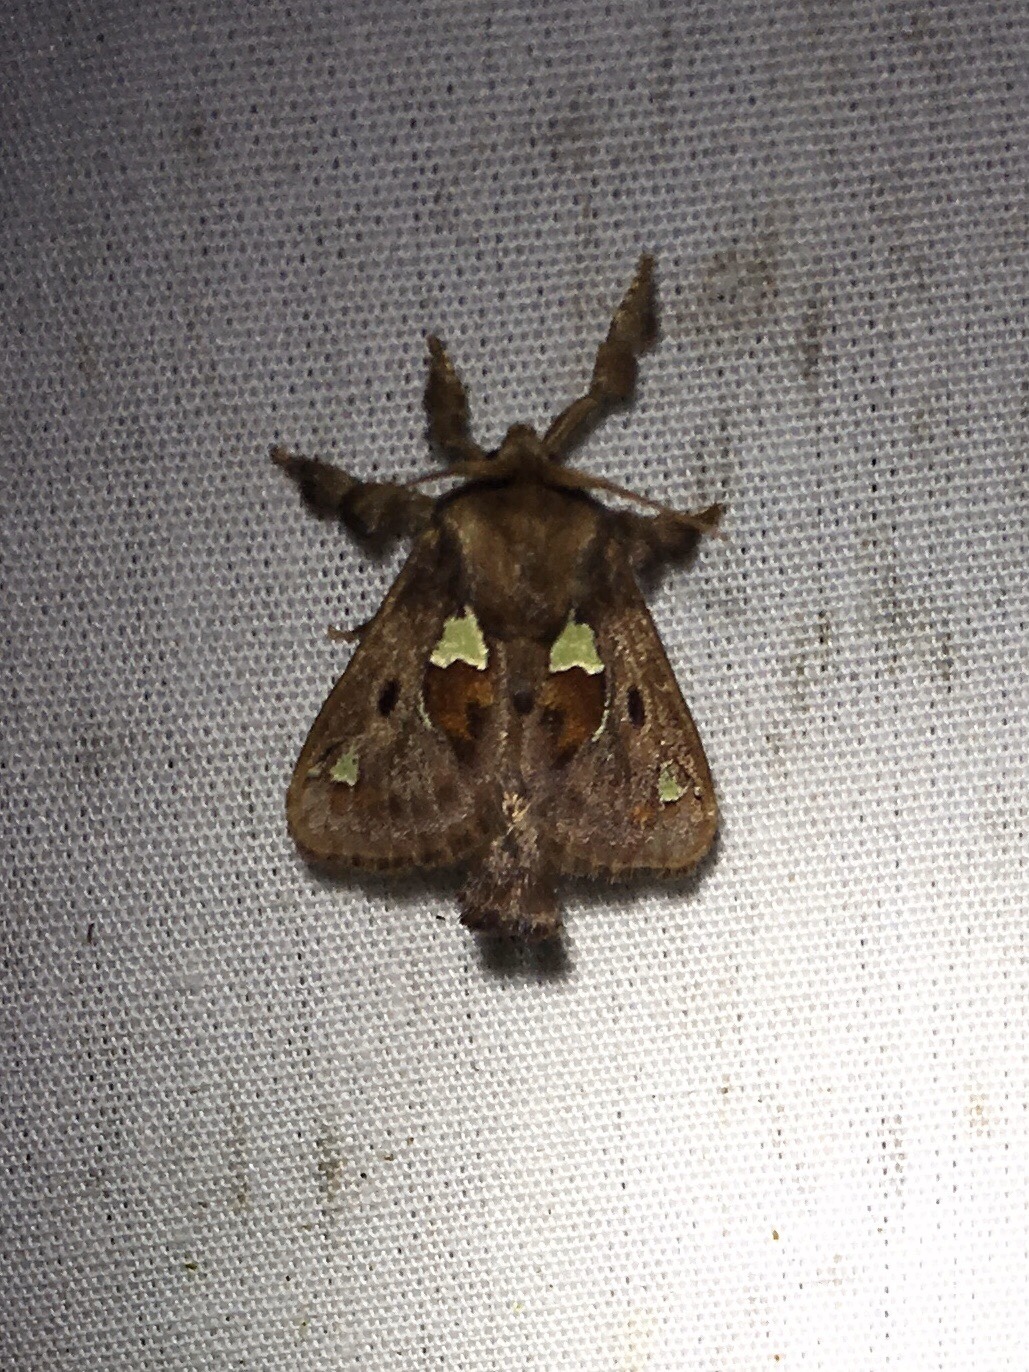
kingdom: Animalia
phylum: Arthropoda
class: Insecta
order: Lepidoptera
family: Limacodidae
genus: Euclea
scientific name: Euclea delphinii
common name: Spiny oak-slug moth
